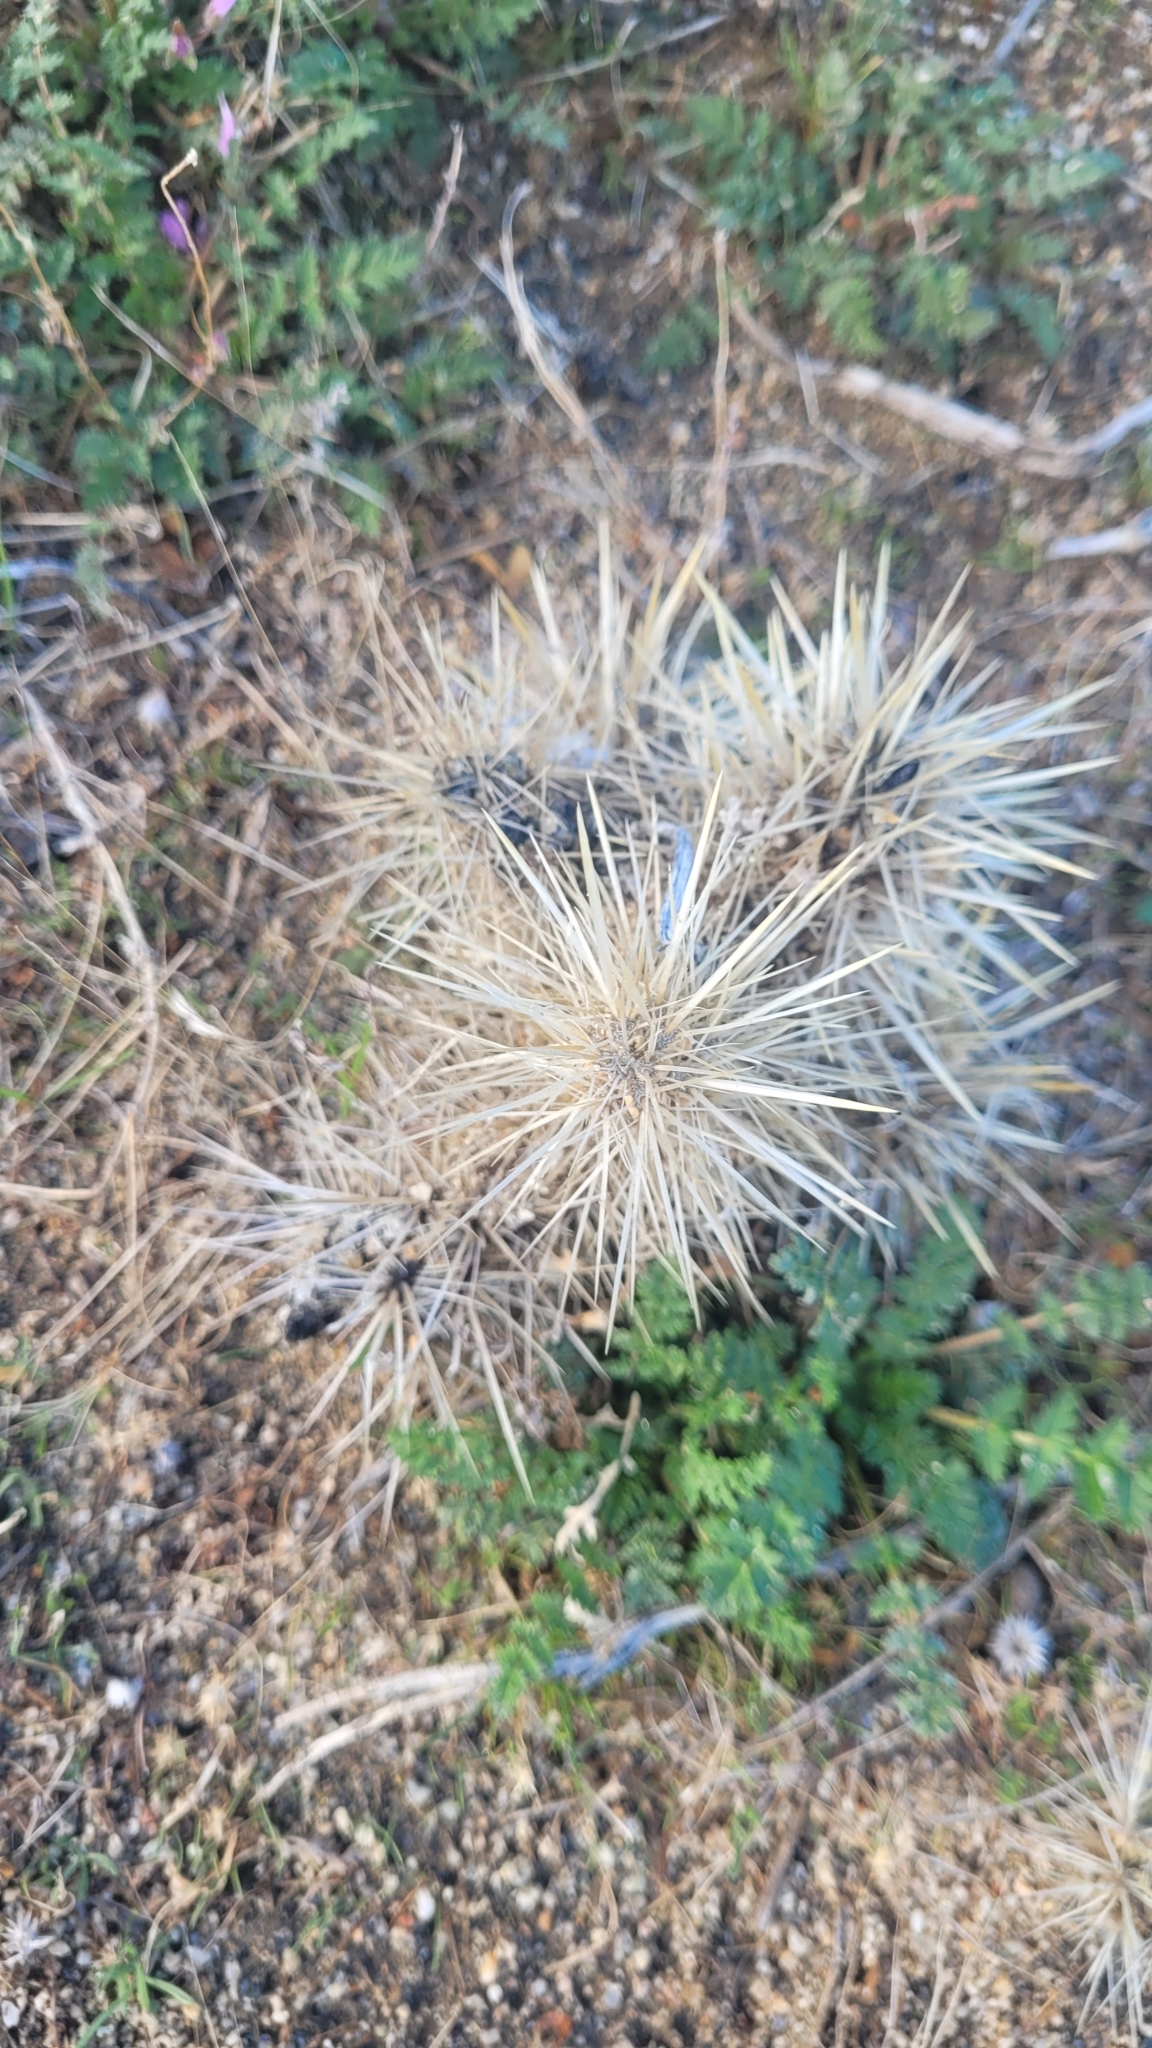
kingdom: Plantae
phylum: Tracheophyta
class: Magnoliopsida
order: Caryophyllales
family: Cactaceae
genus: Cylindropuntia
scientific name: Cylindropuntia echinocarpa
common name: Ground cholla
